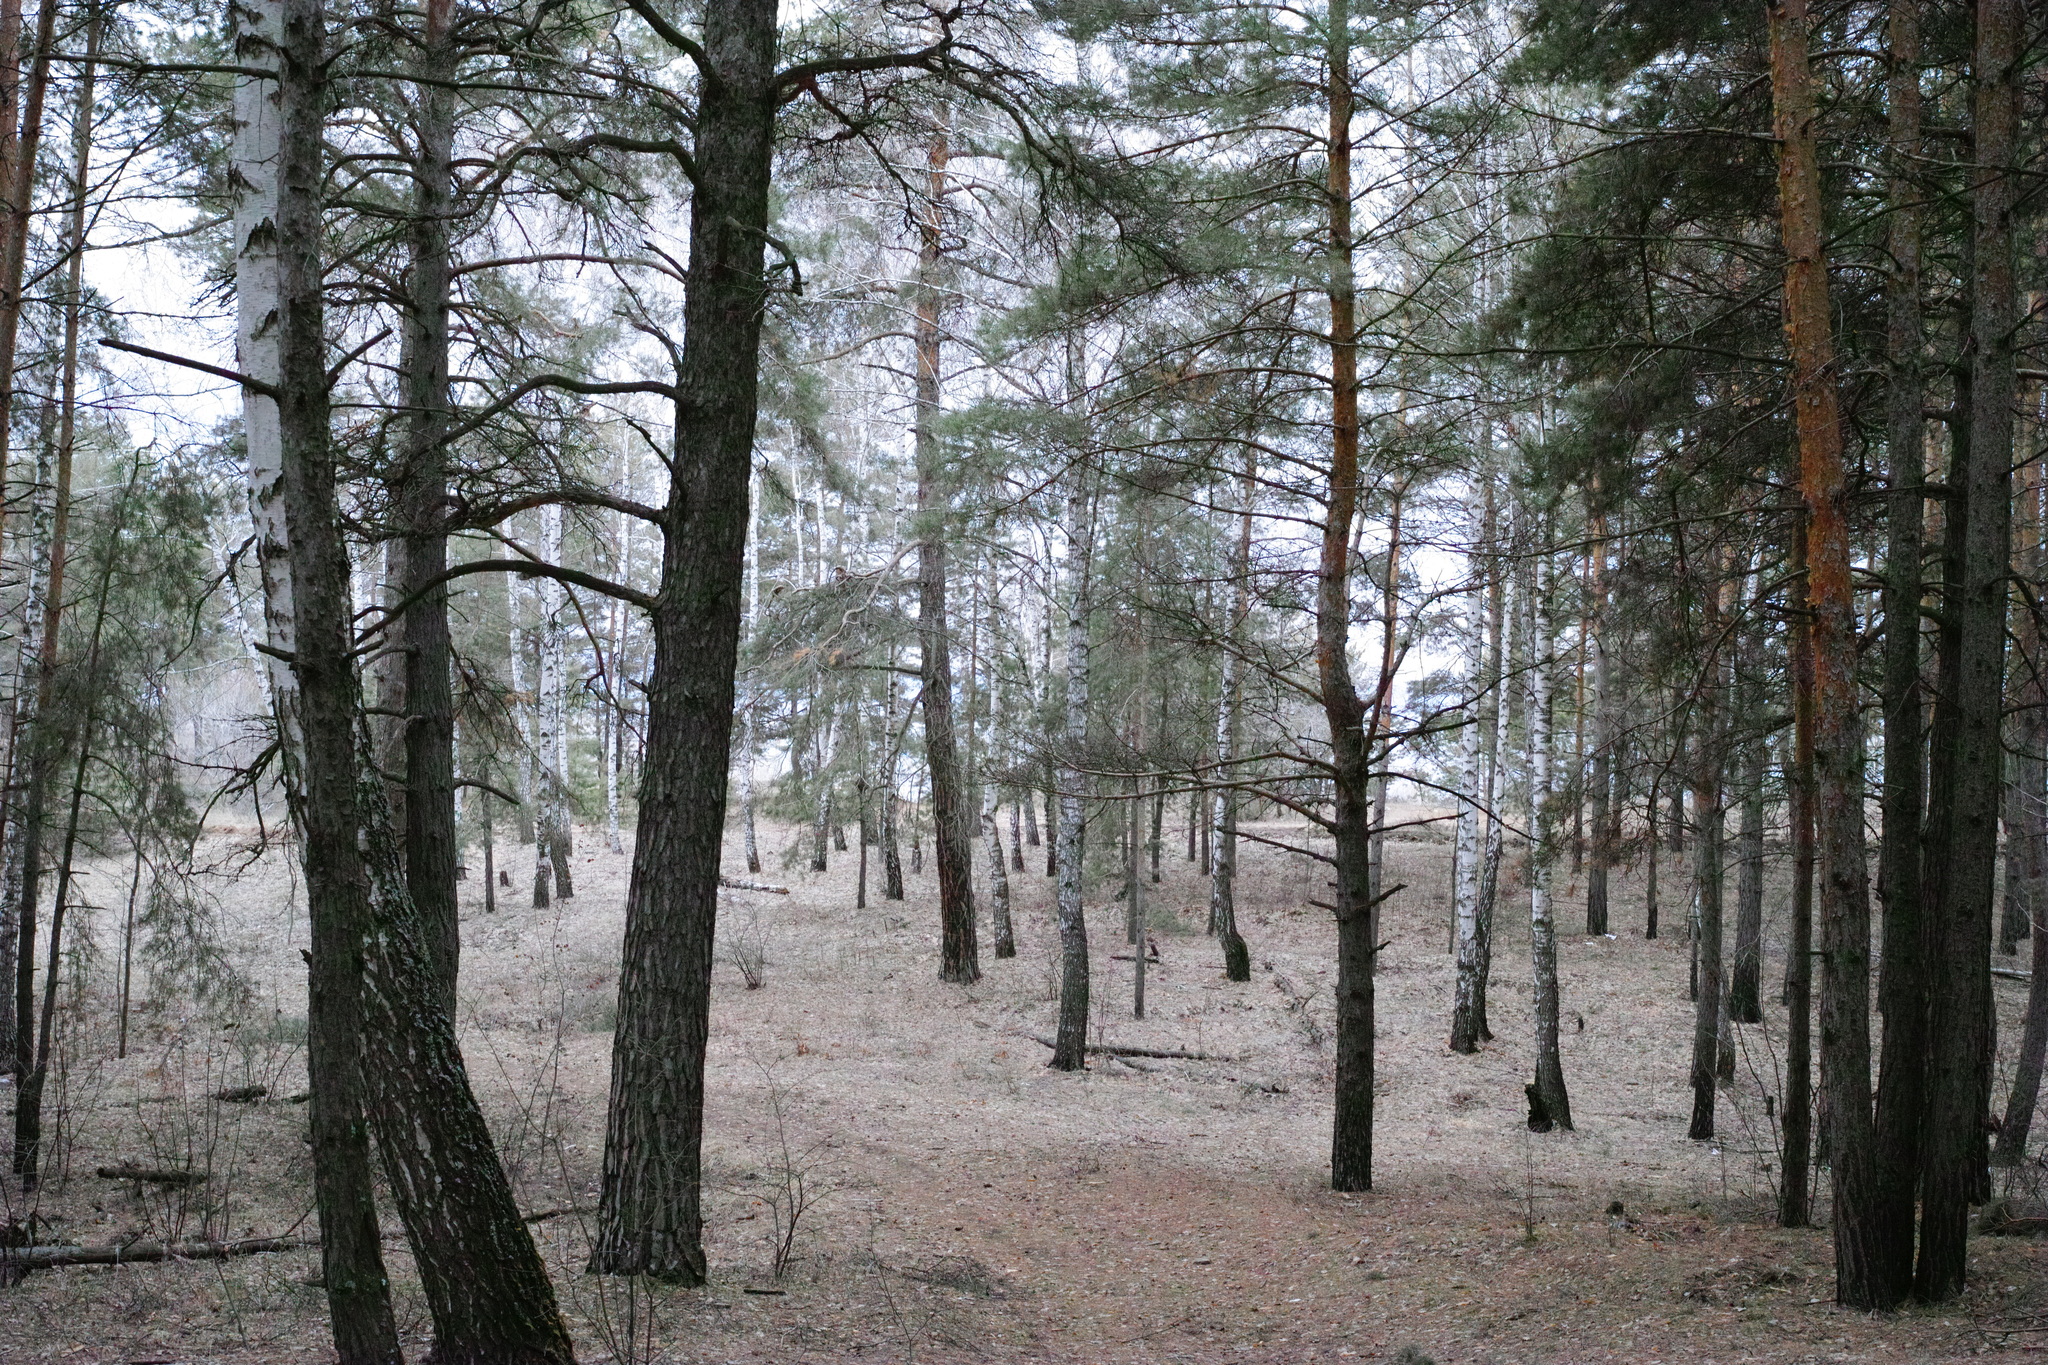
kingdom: Plantae
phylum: Tracheophyta
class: Pinopsida
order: Pinales
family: Pinaceae
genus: Pinus
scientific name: Pinus sylvestris
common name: Scots pine
